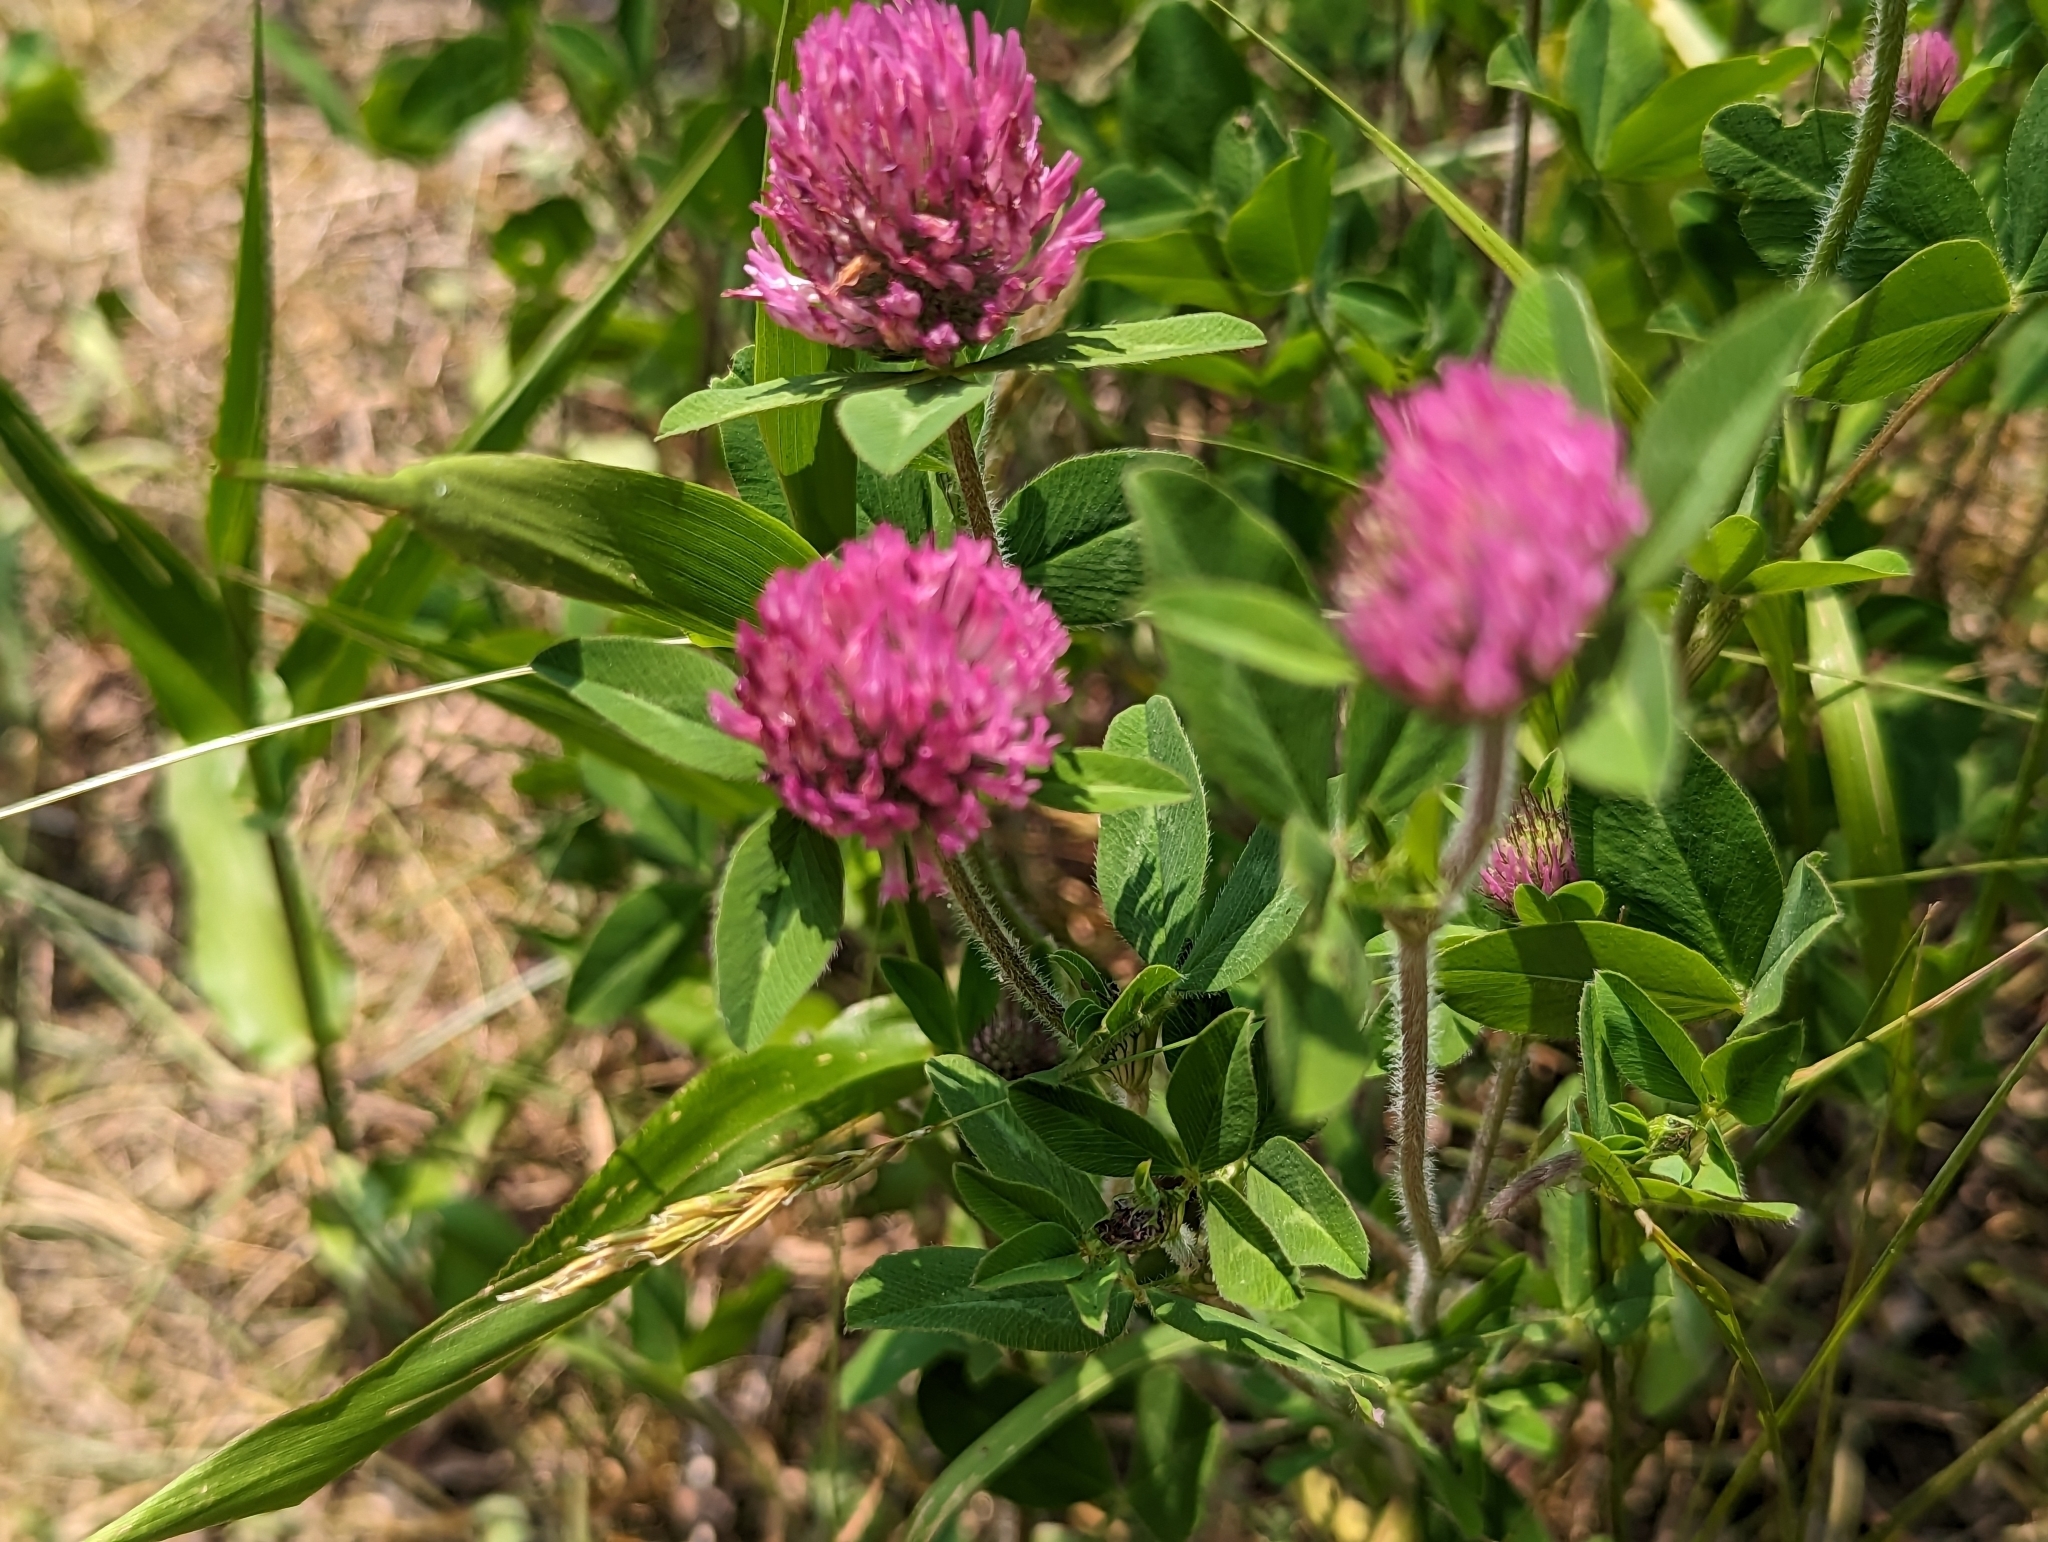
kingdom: Plantae
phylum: Tracheophyta
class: Magnoliopsida
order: Fabales
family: Fabaceae
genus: Trifolium
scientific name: Trifolium pratense
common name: Red clover
